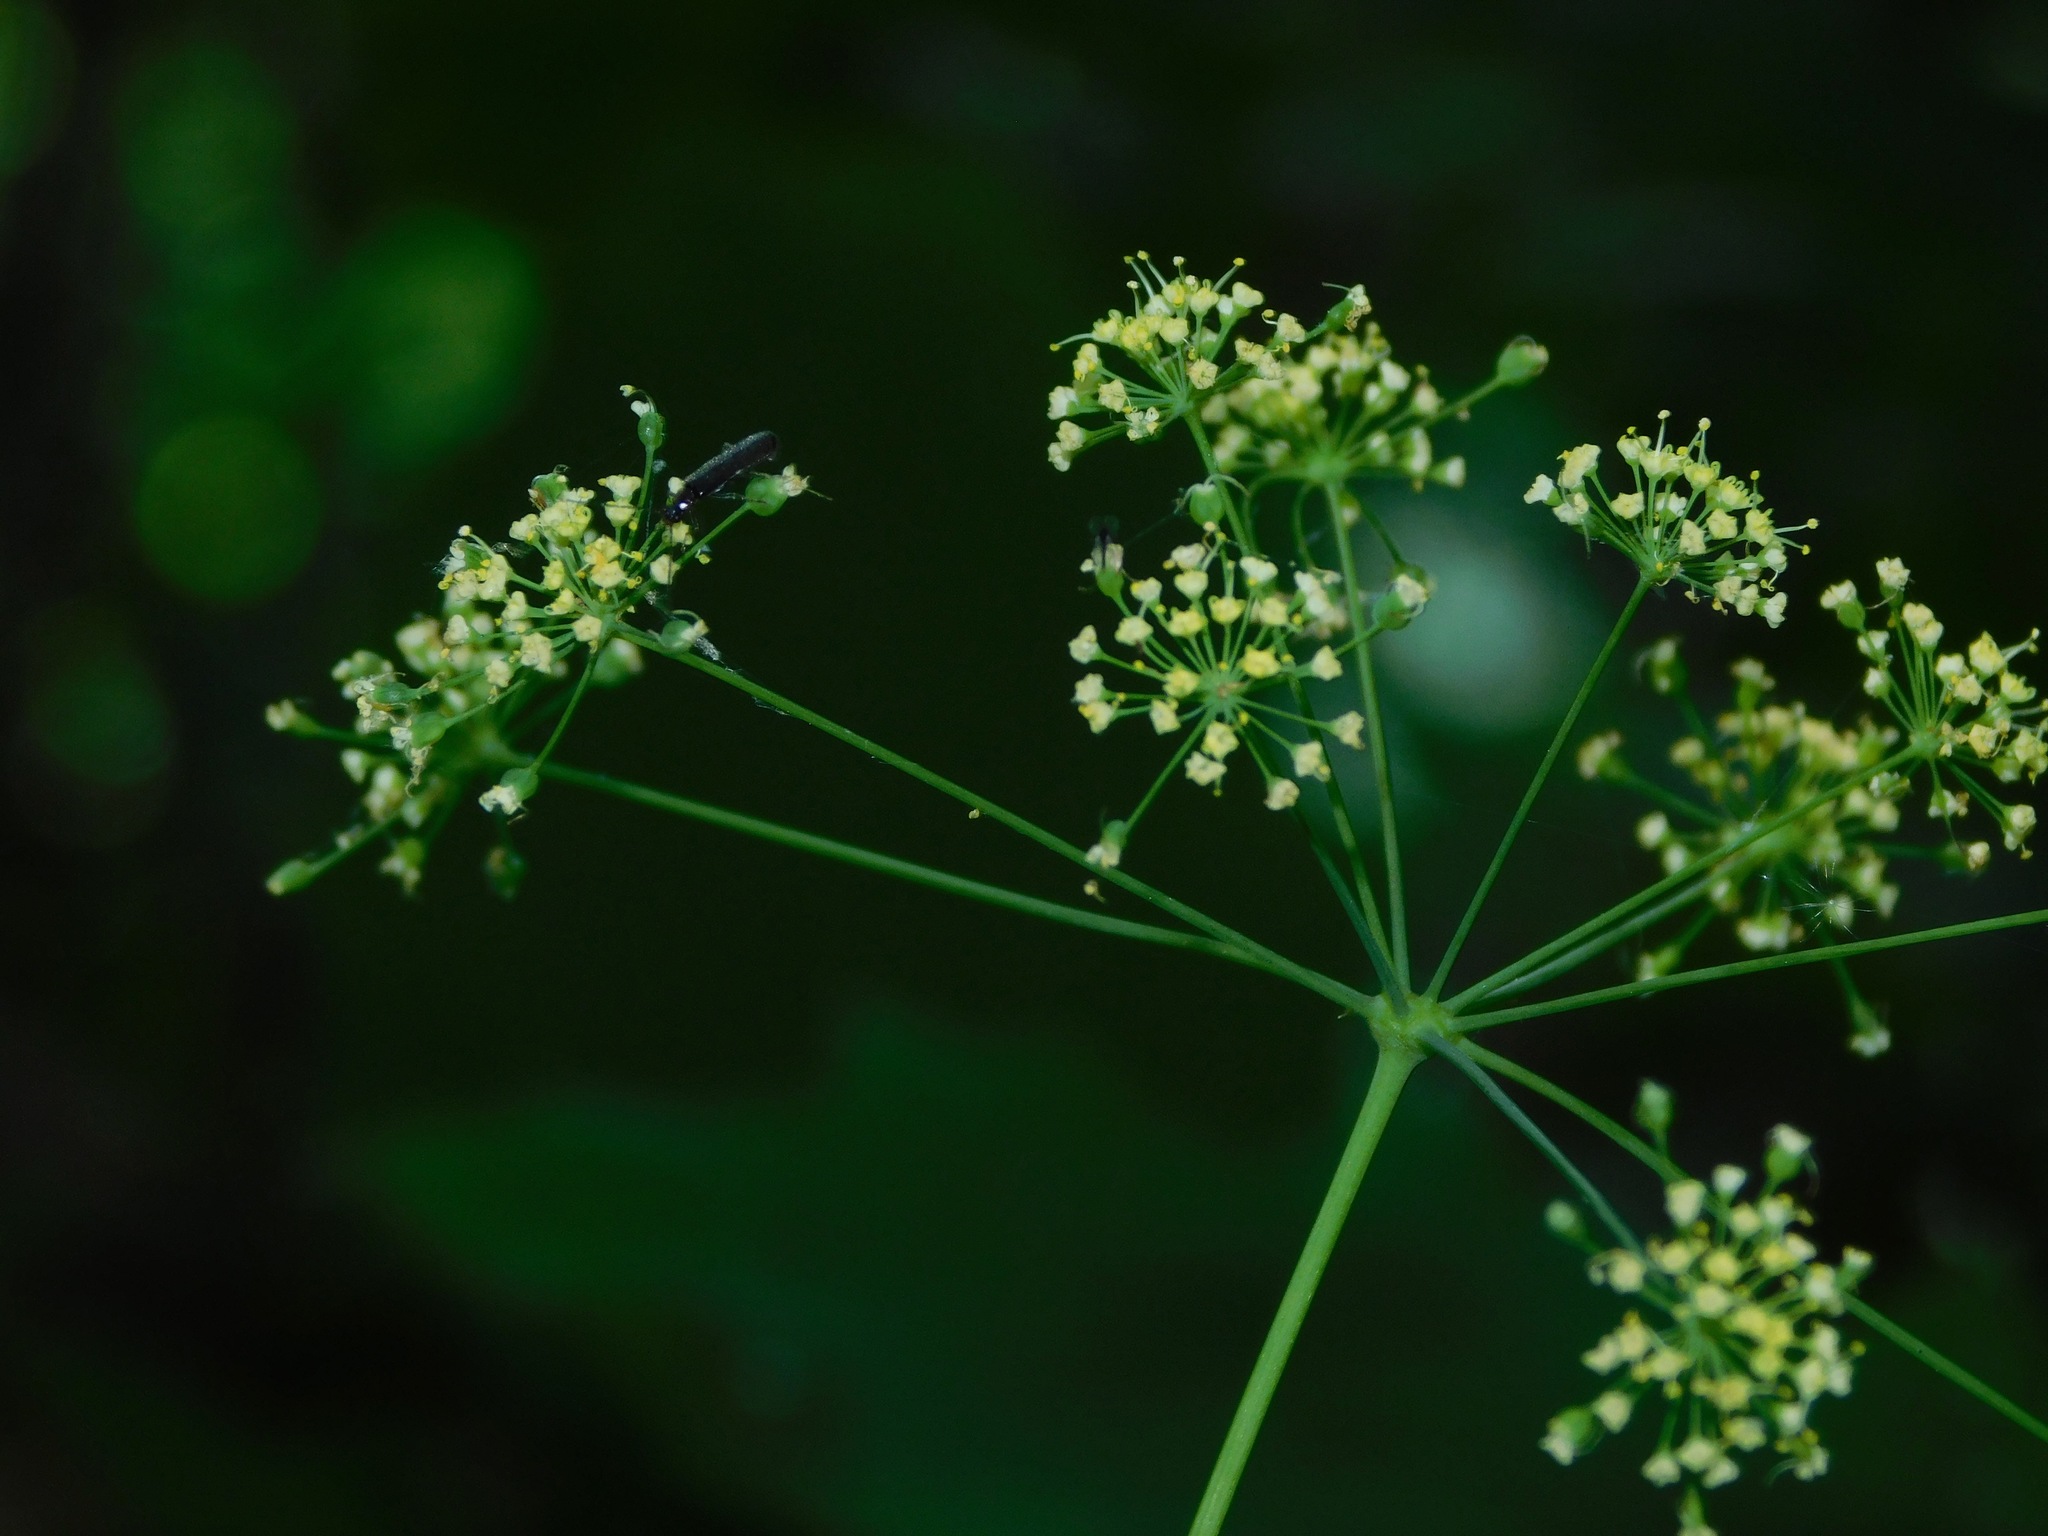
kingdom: Plantae
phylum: Tracheophyta
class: Magnoliopsida
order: Apiales
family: Apiaceae
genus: Taenidia
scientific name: Taenidia integerrima
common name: Golden alexander
